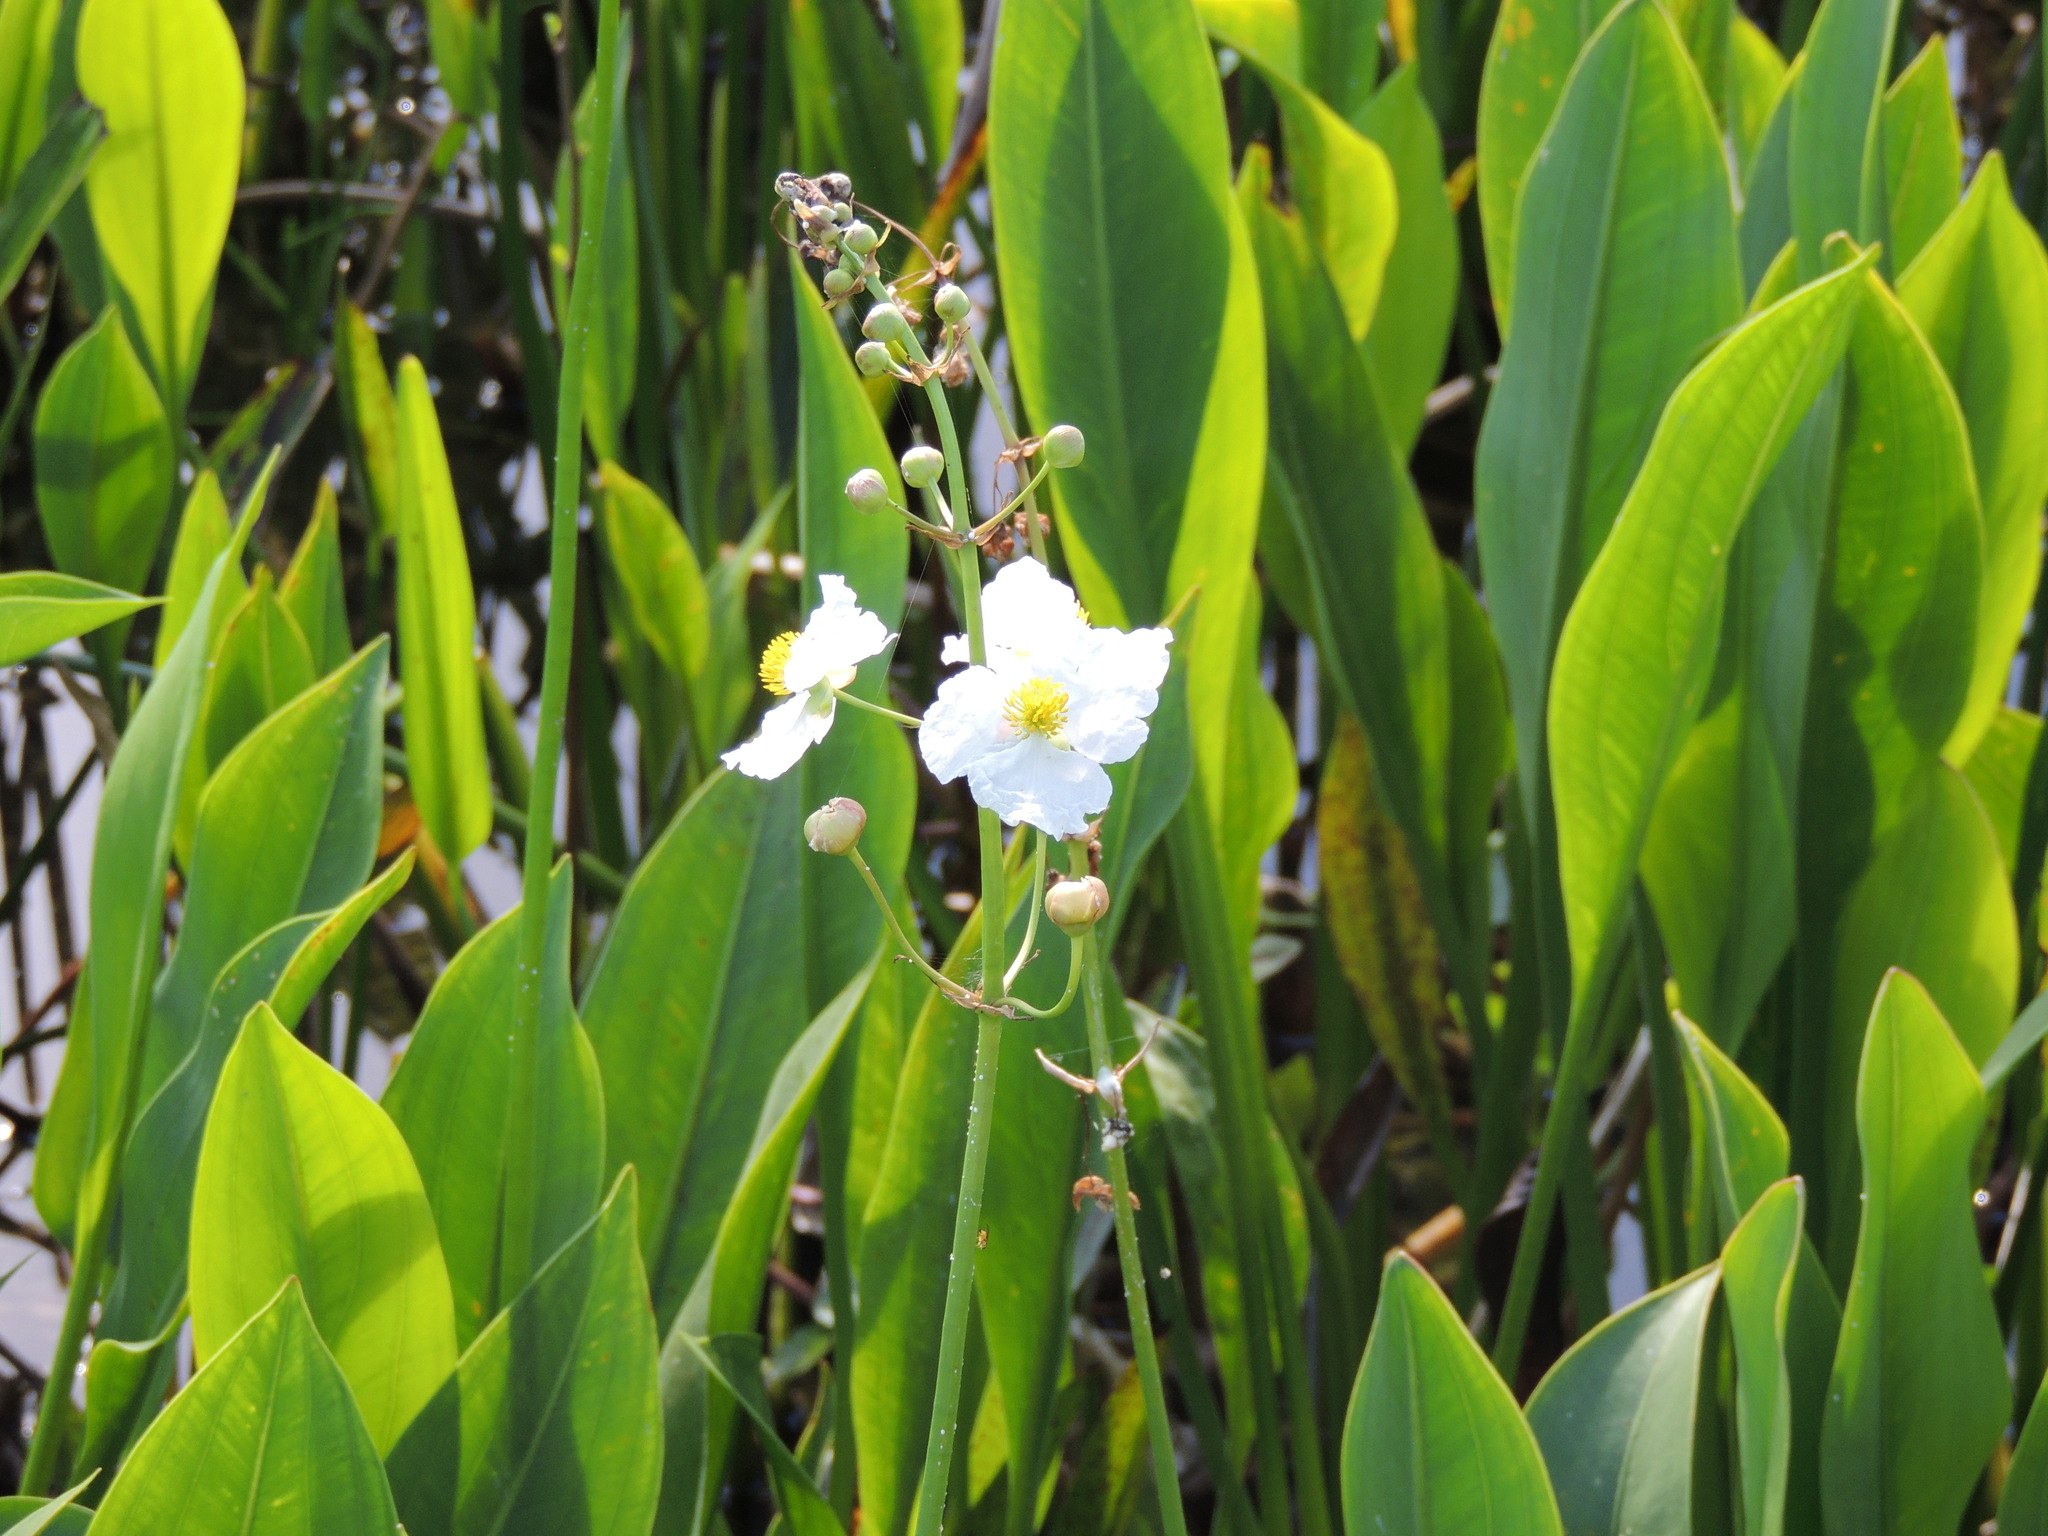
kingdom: Plantae
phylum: Tracheophyta
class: Liliopsida
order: Alismatales
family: Alismataceae
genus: Sagittaria
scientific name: Sagittaria lancifolia
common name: Lance-leaf arrowhead
